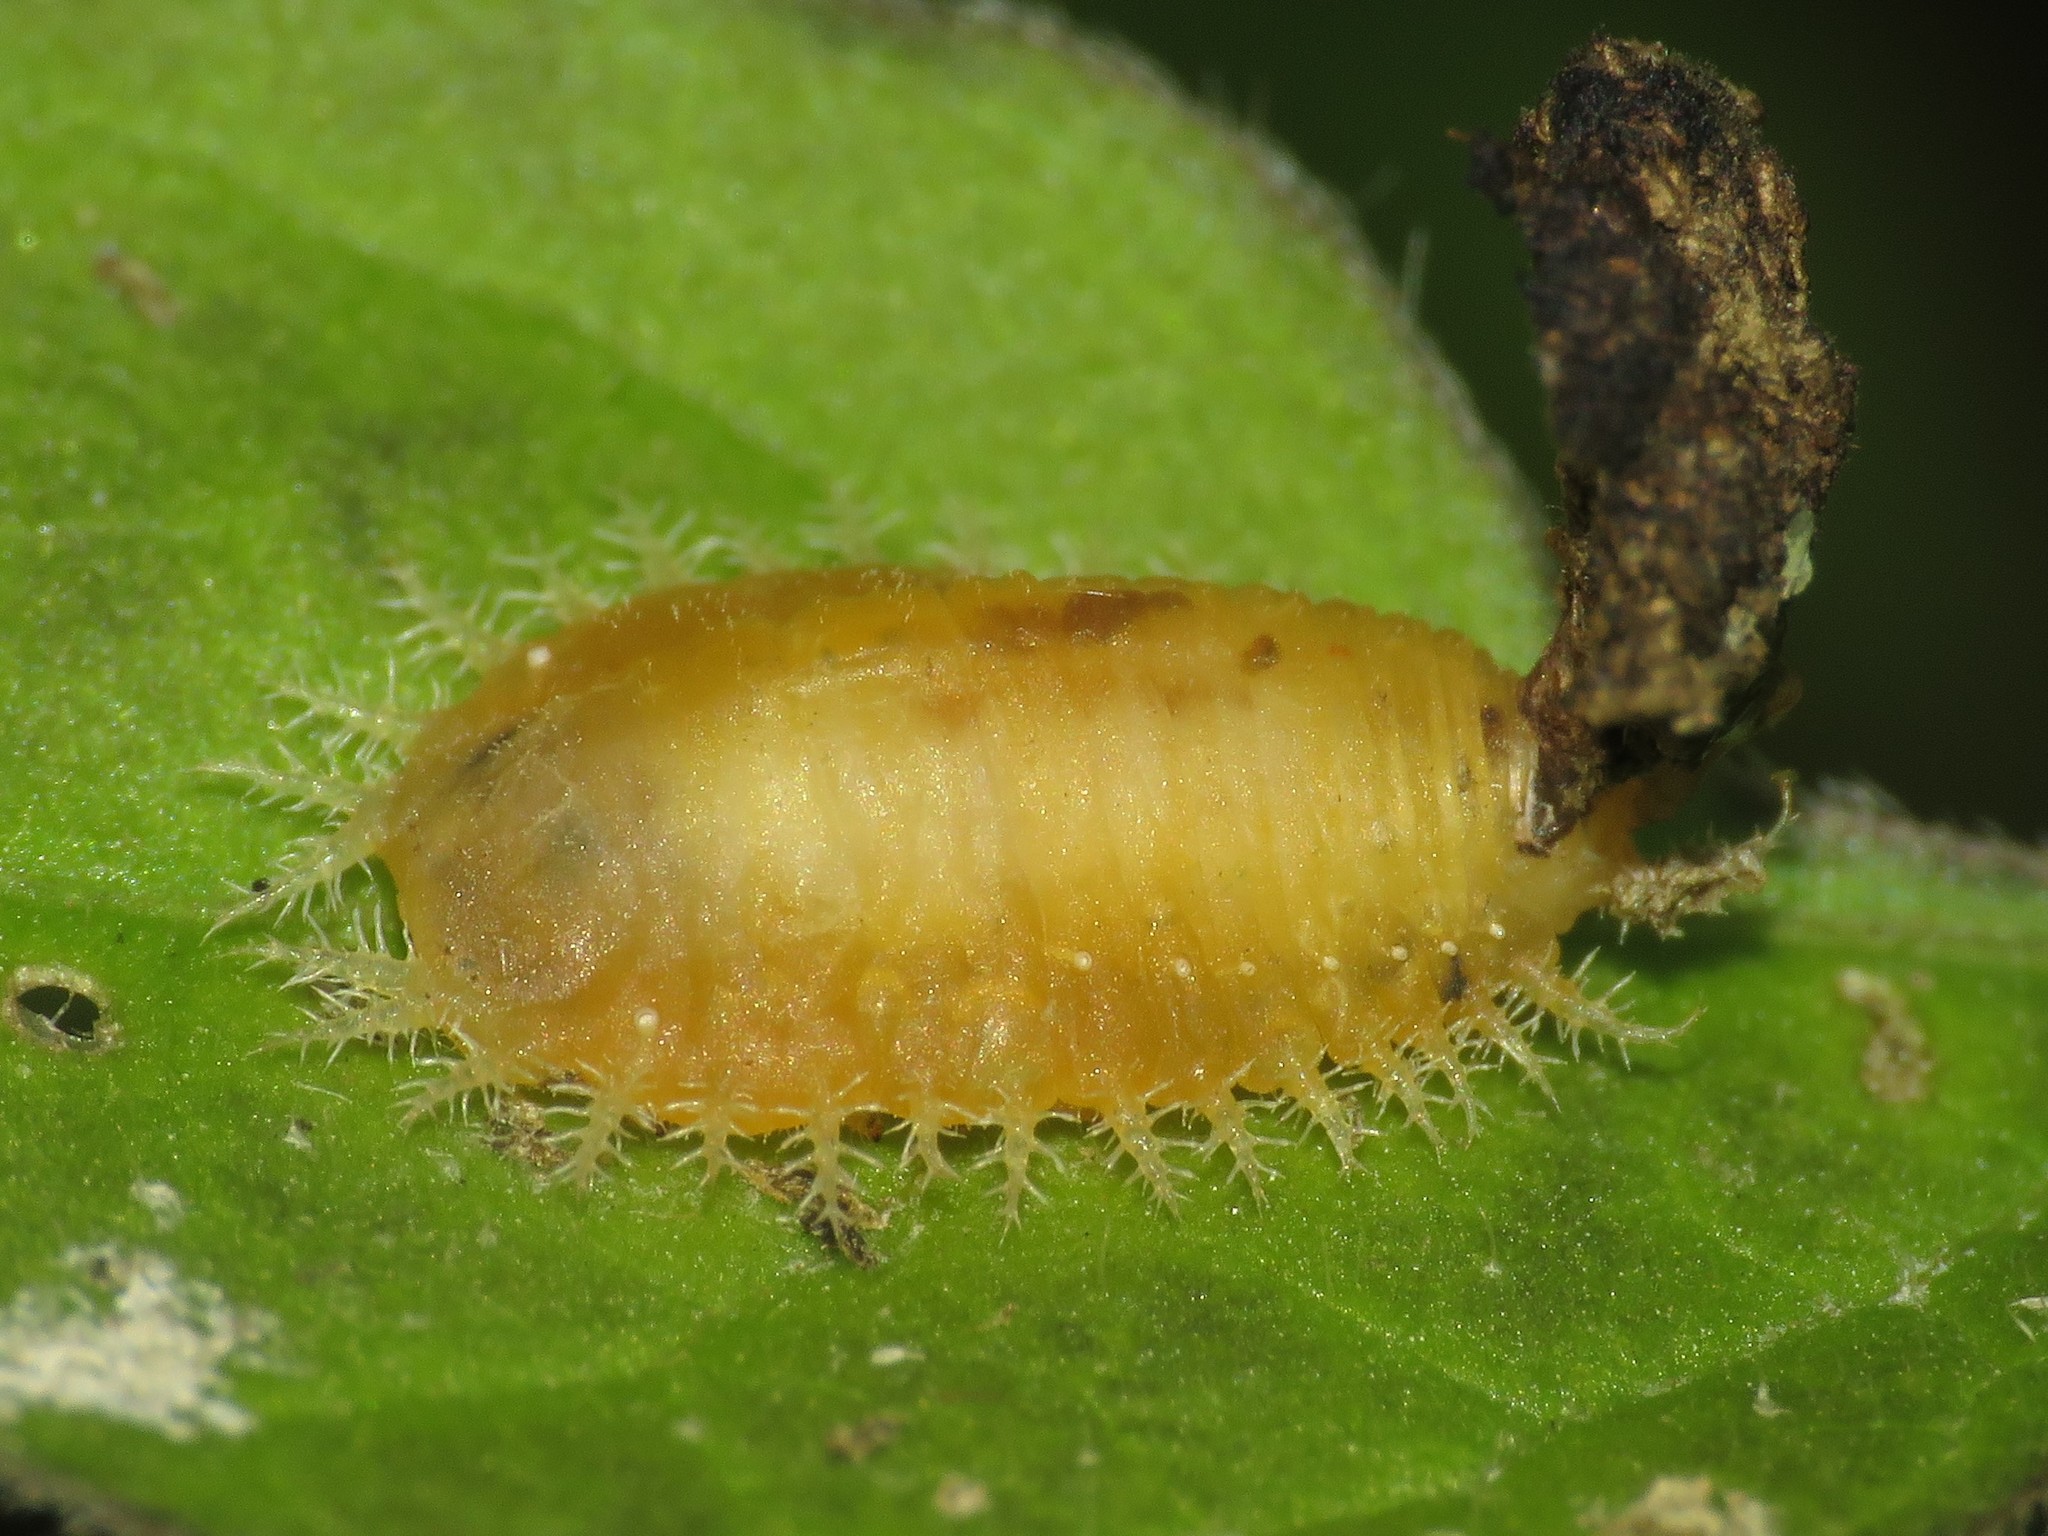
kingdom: Animalia
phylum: Arthropoda
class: Insecta
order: Coleoptera
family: Chrysomelidae
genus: Helocassis
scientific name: Helocassis clavata
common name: Clavate tortoise beetle
